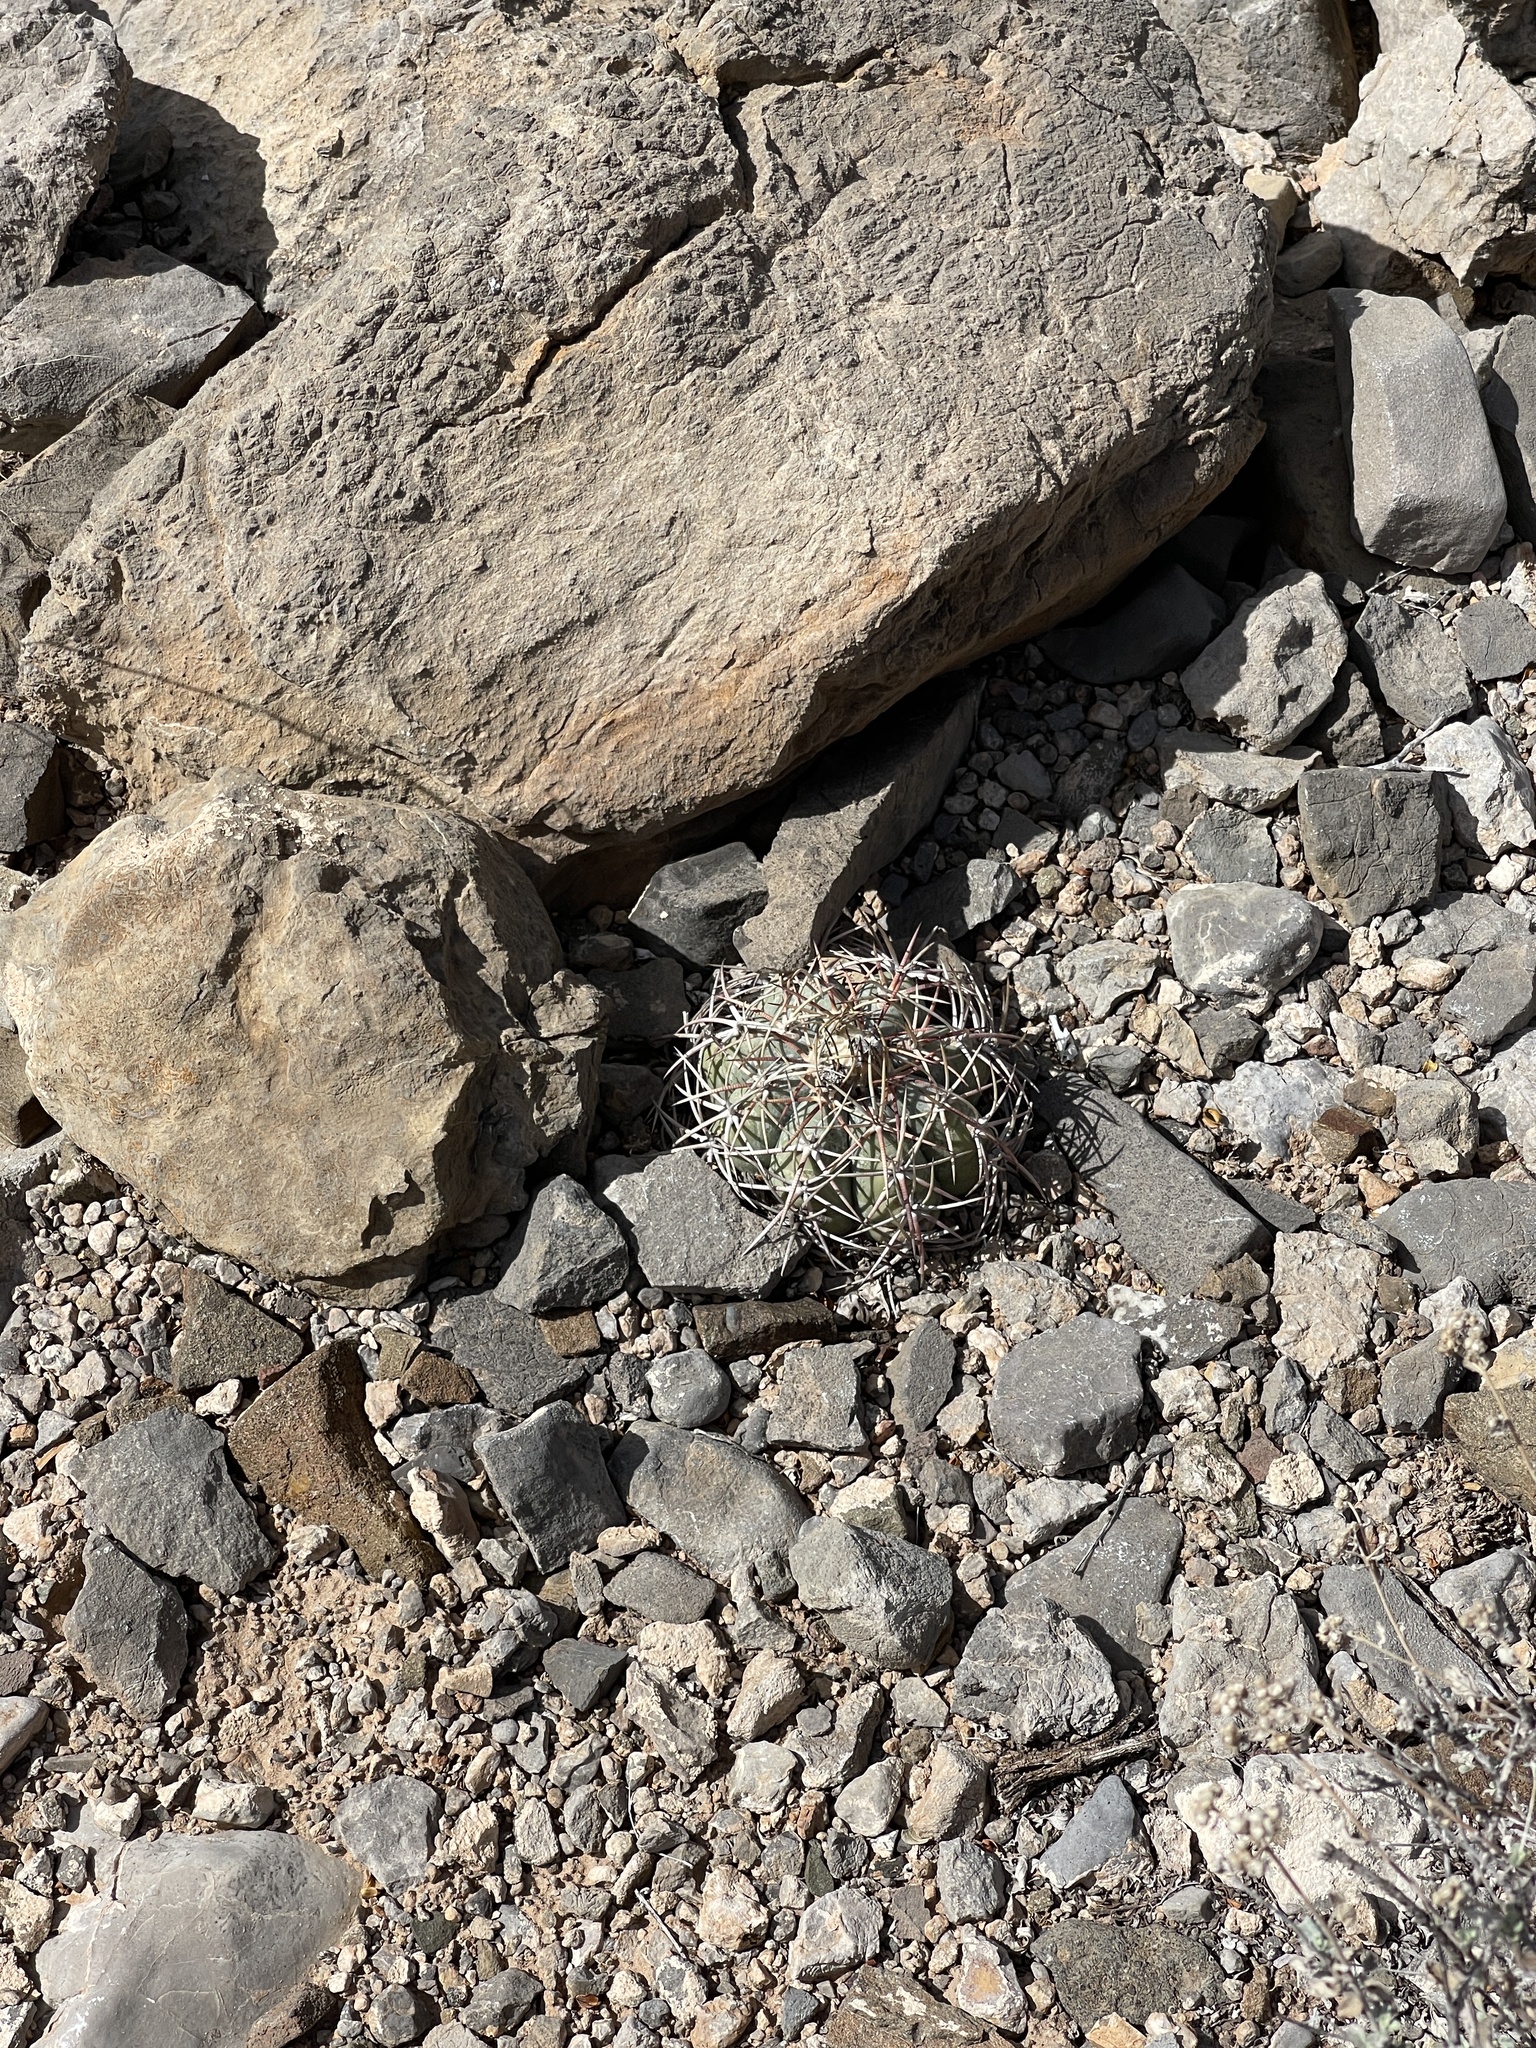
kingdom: Plantae
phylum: Tracheophyta
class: Magnoliopsida
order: Caryophyllales
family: Cactaceae
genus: Echinocactus
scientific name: Echinocactus horizonthalonius
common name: Devilshead
